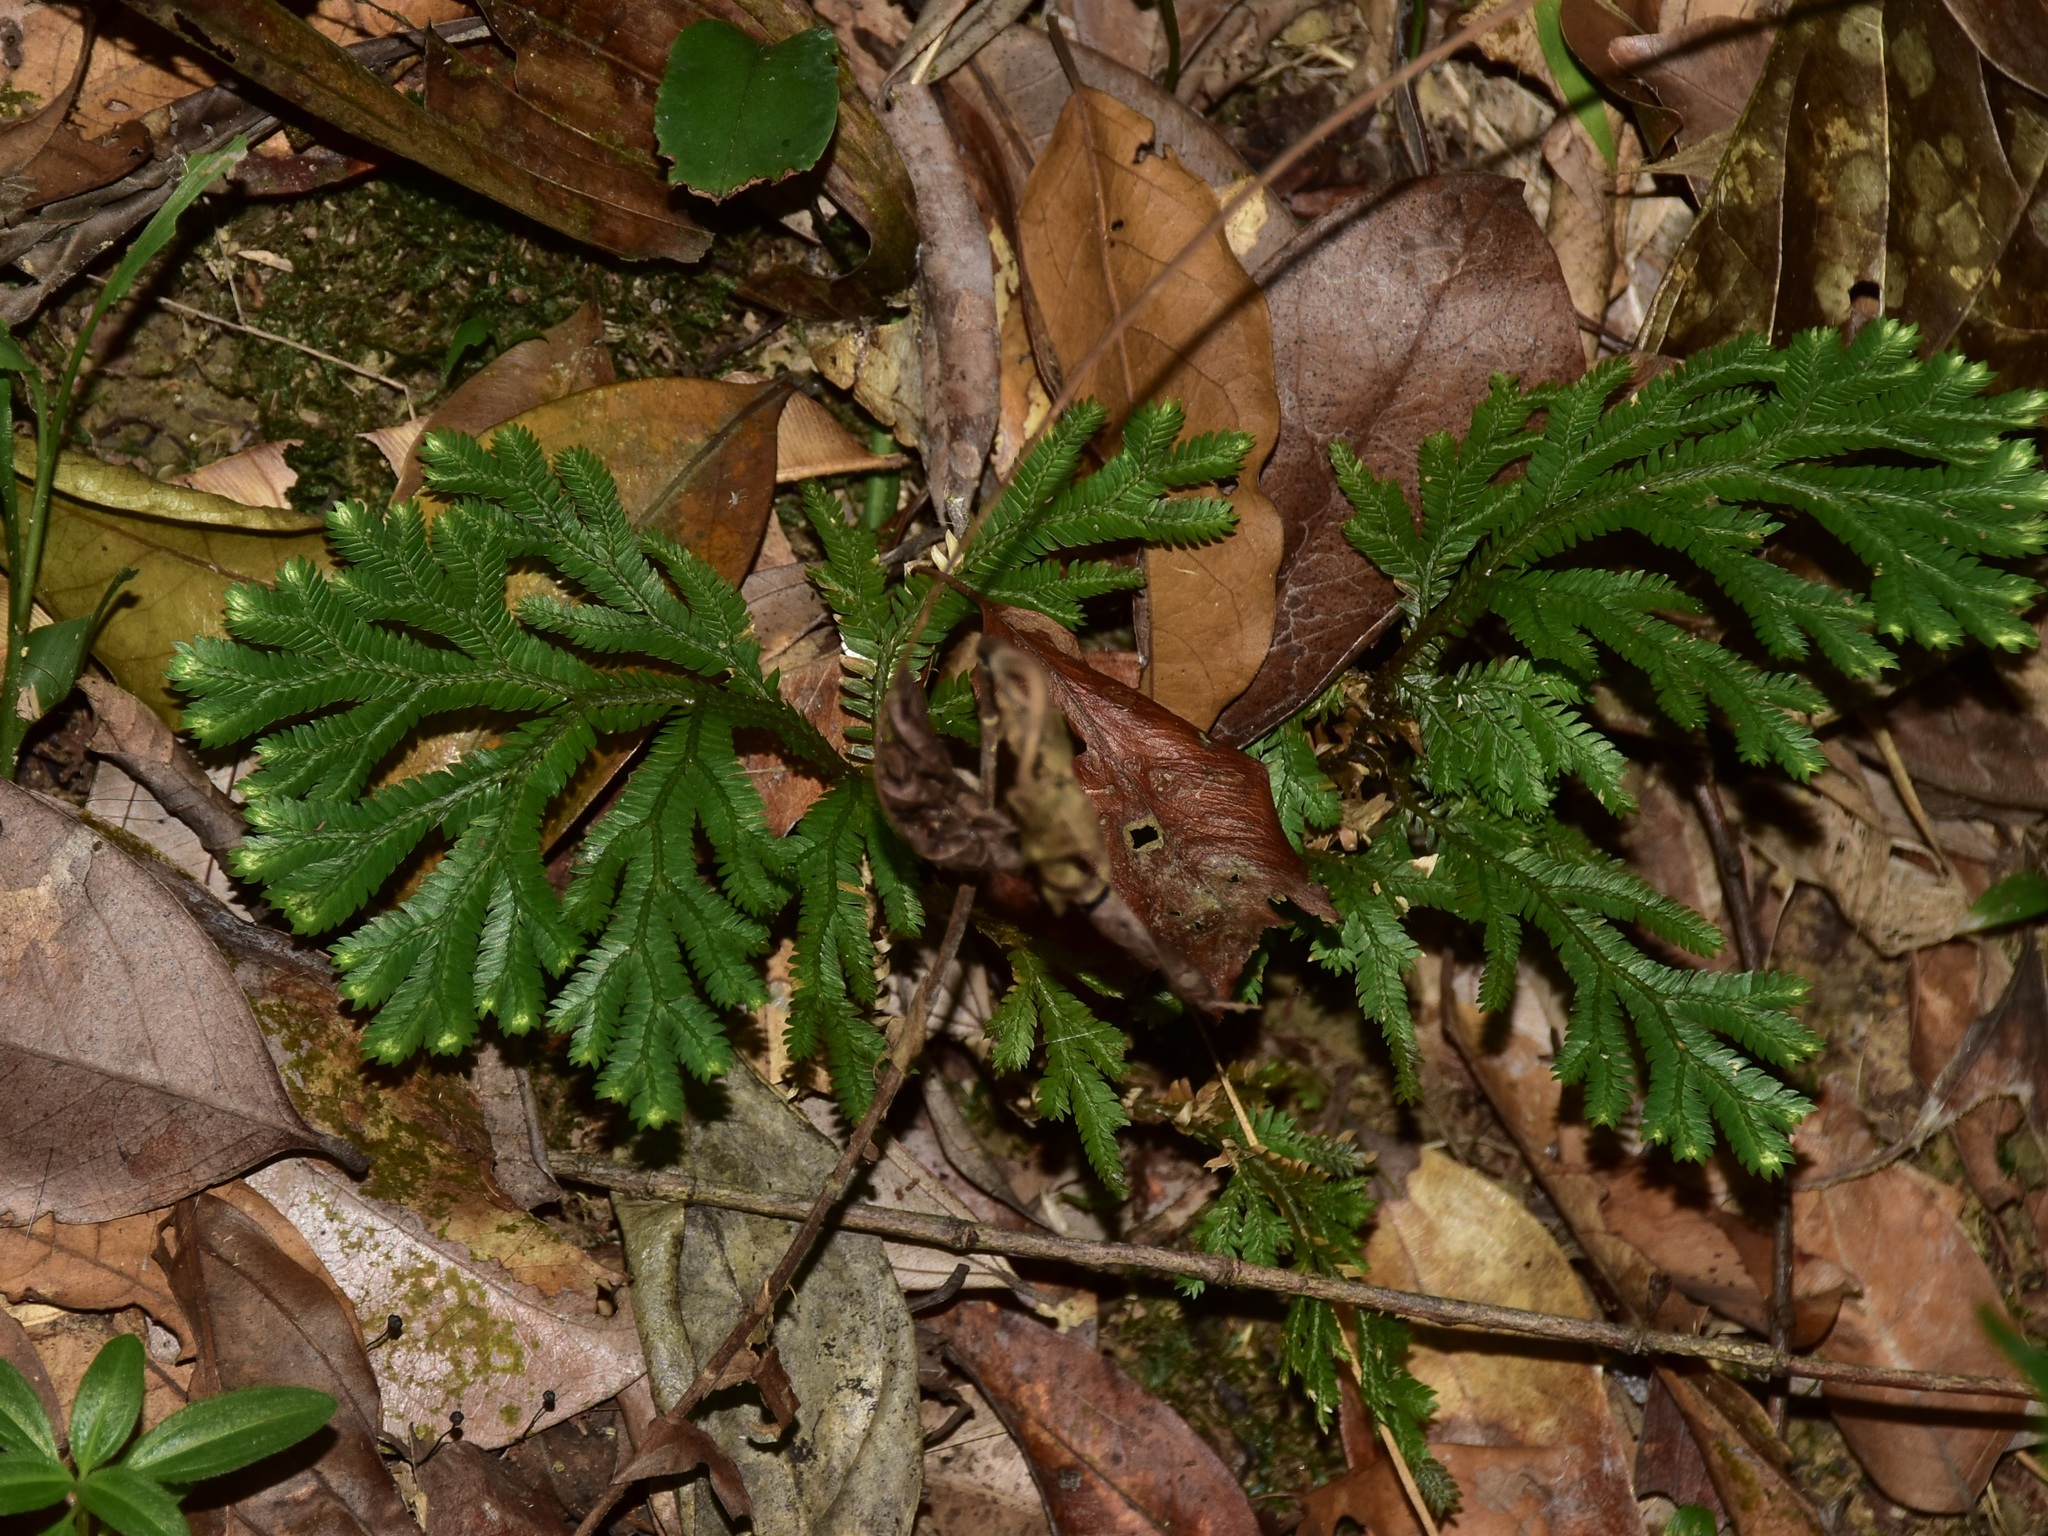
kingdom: Plantae
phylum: Tracheophyta
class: Lycopodiopsida
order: Selaginellales
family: Selaginellaceae
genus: Selaginella
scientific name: Selaginella intermedia
